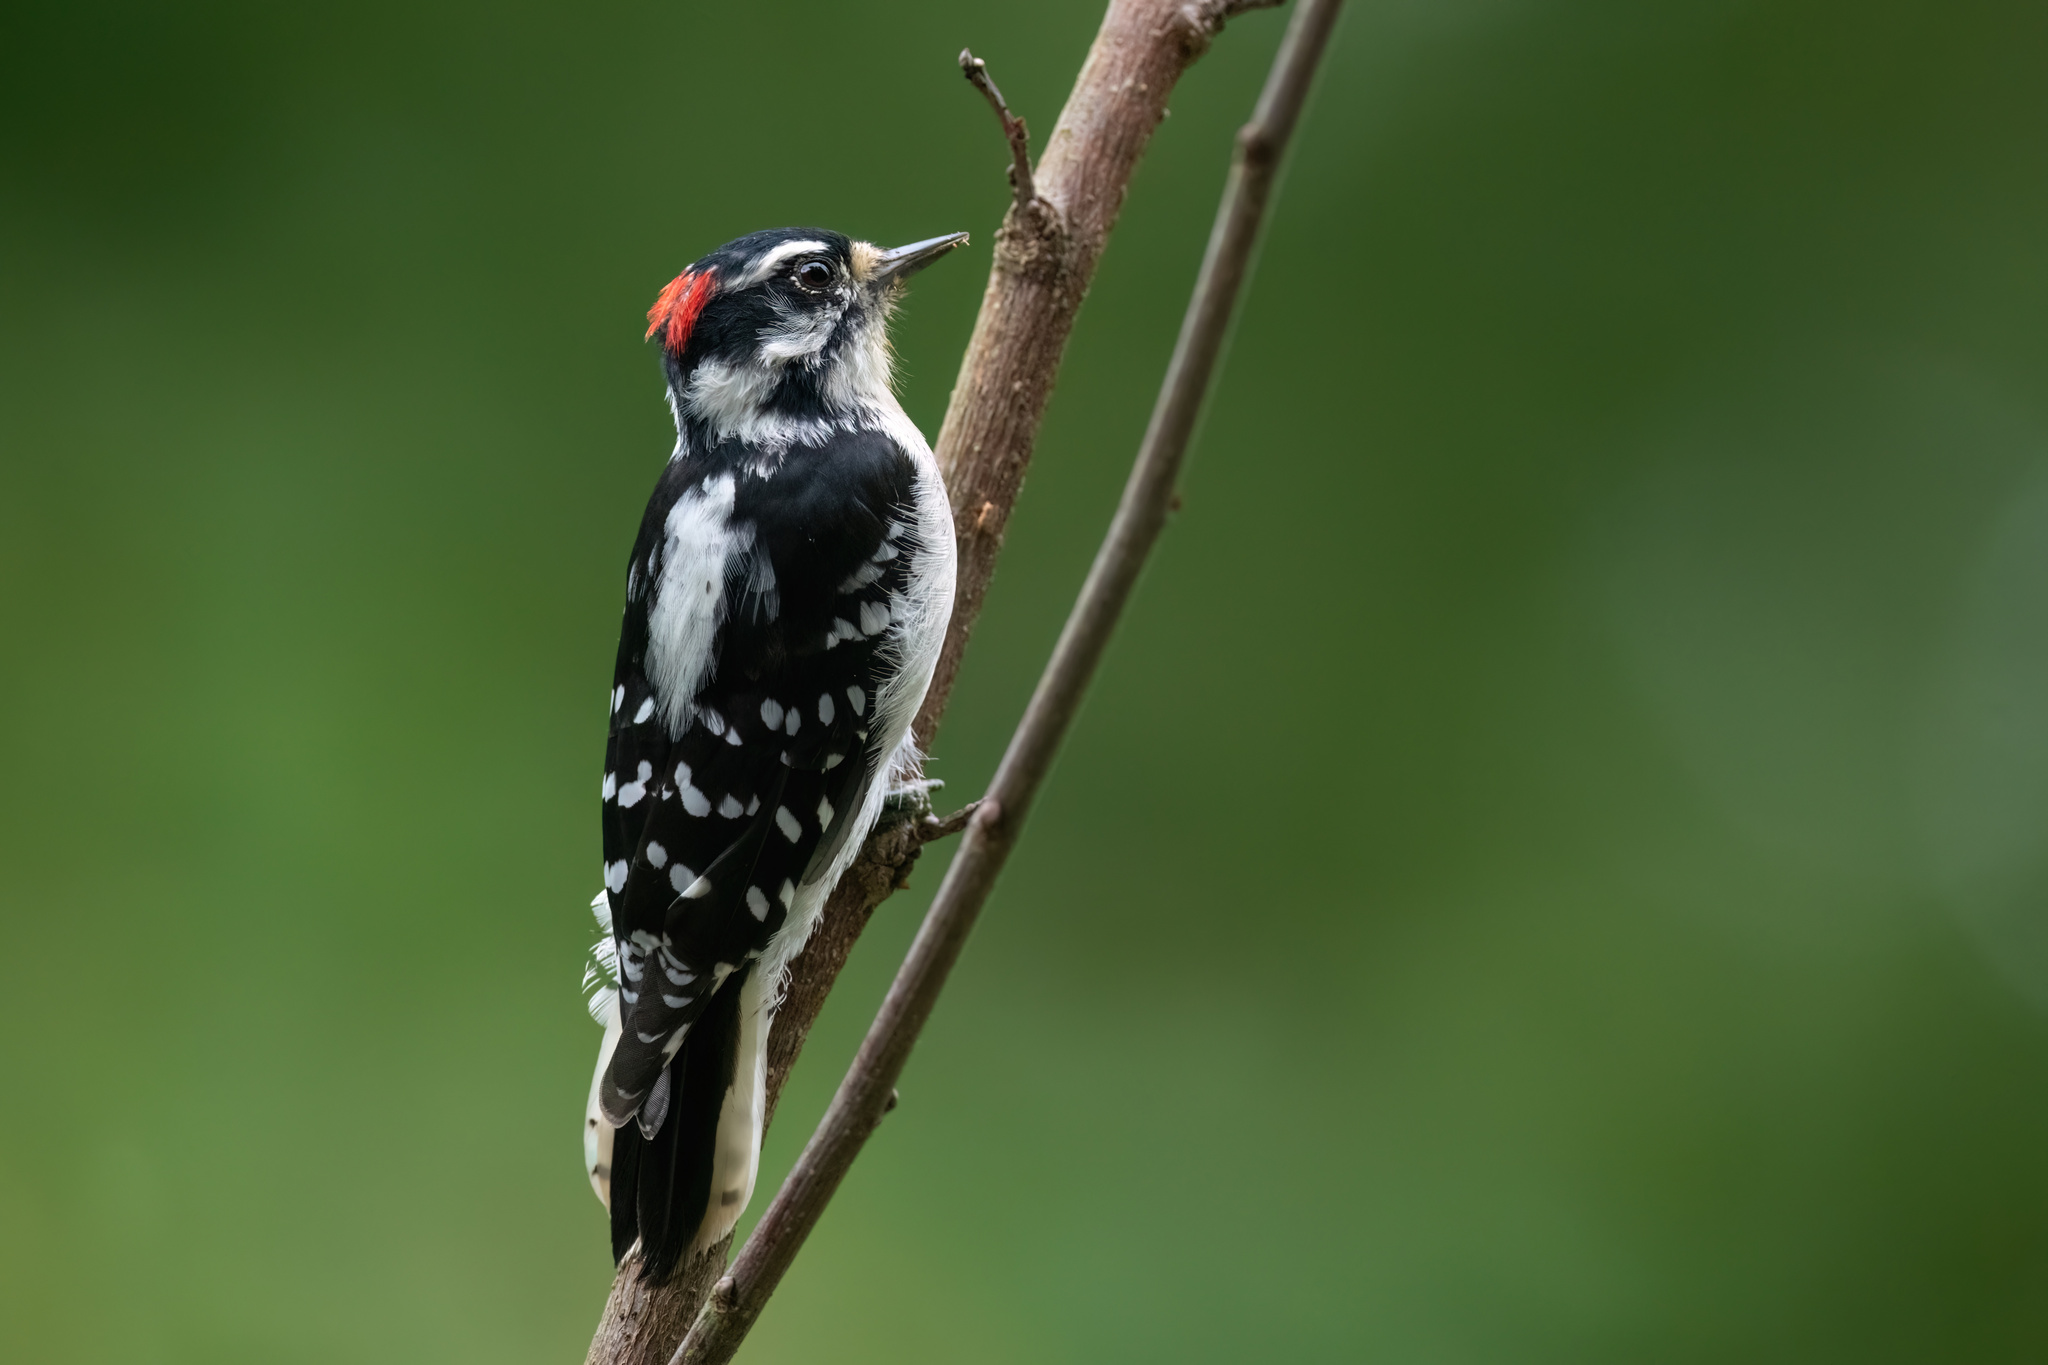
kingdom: Animalia
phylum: Chordata
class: Aves
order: Piciformes
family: Picidae
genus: Dryobates
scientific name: Dryobates pubescens
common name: Downy woodpecker
